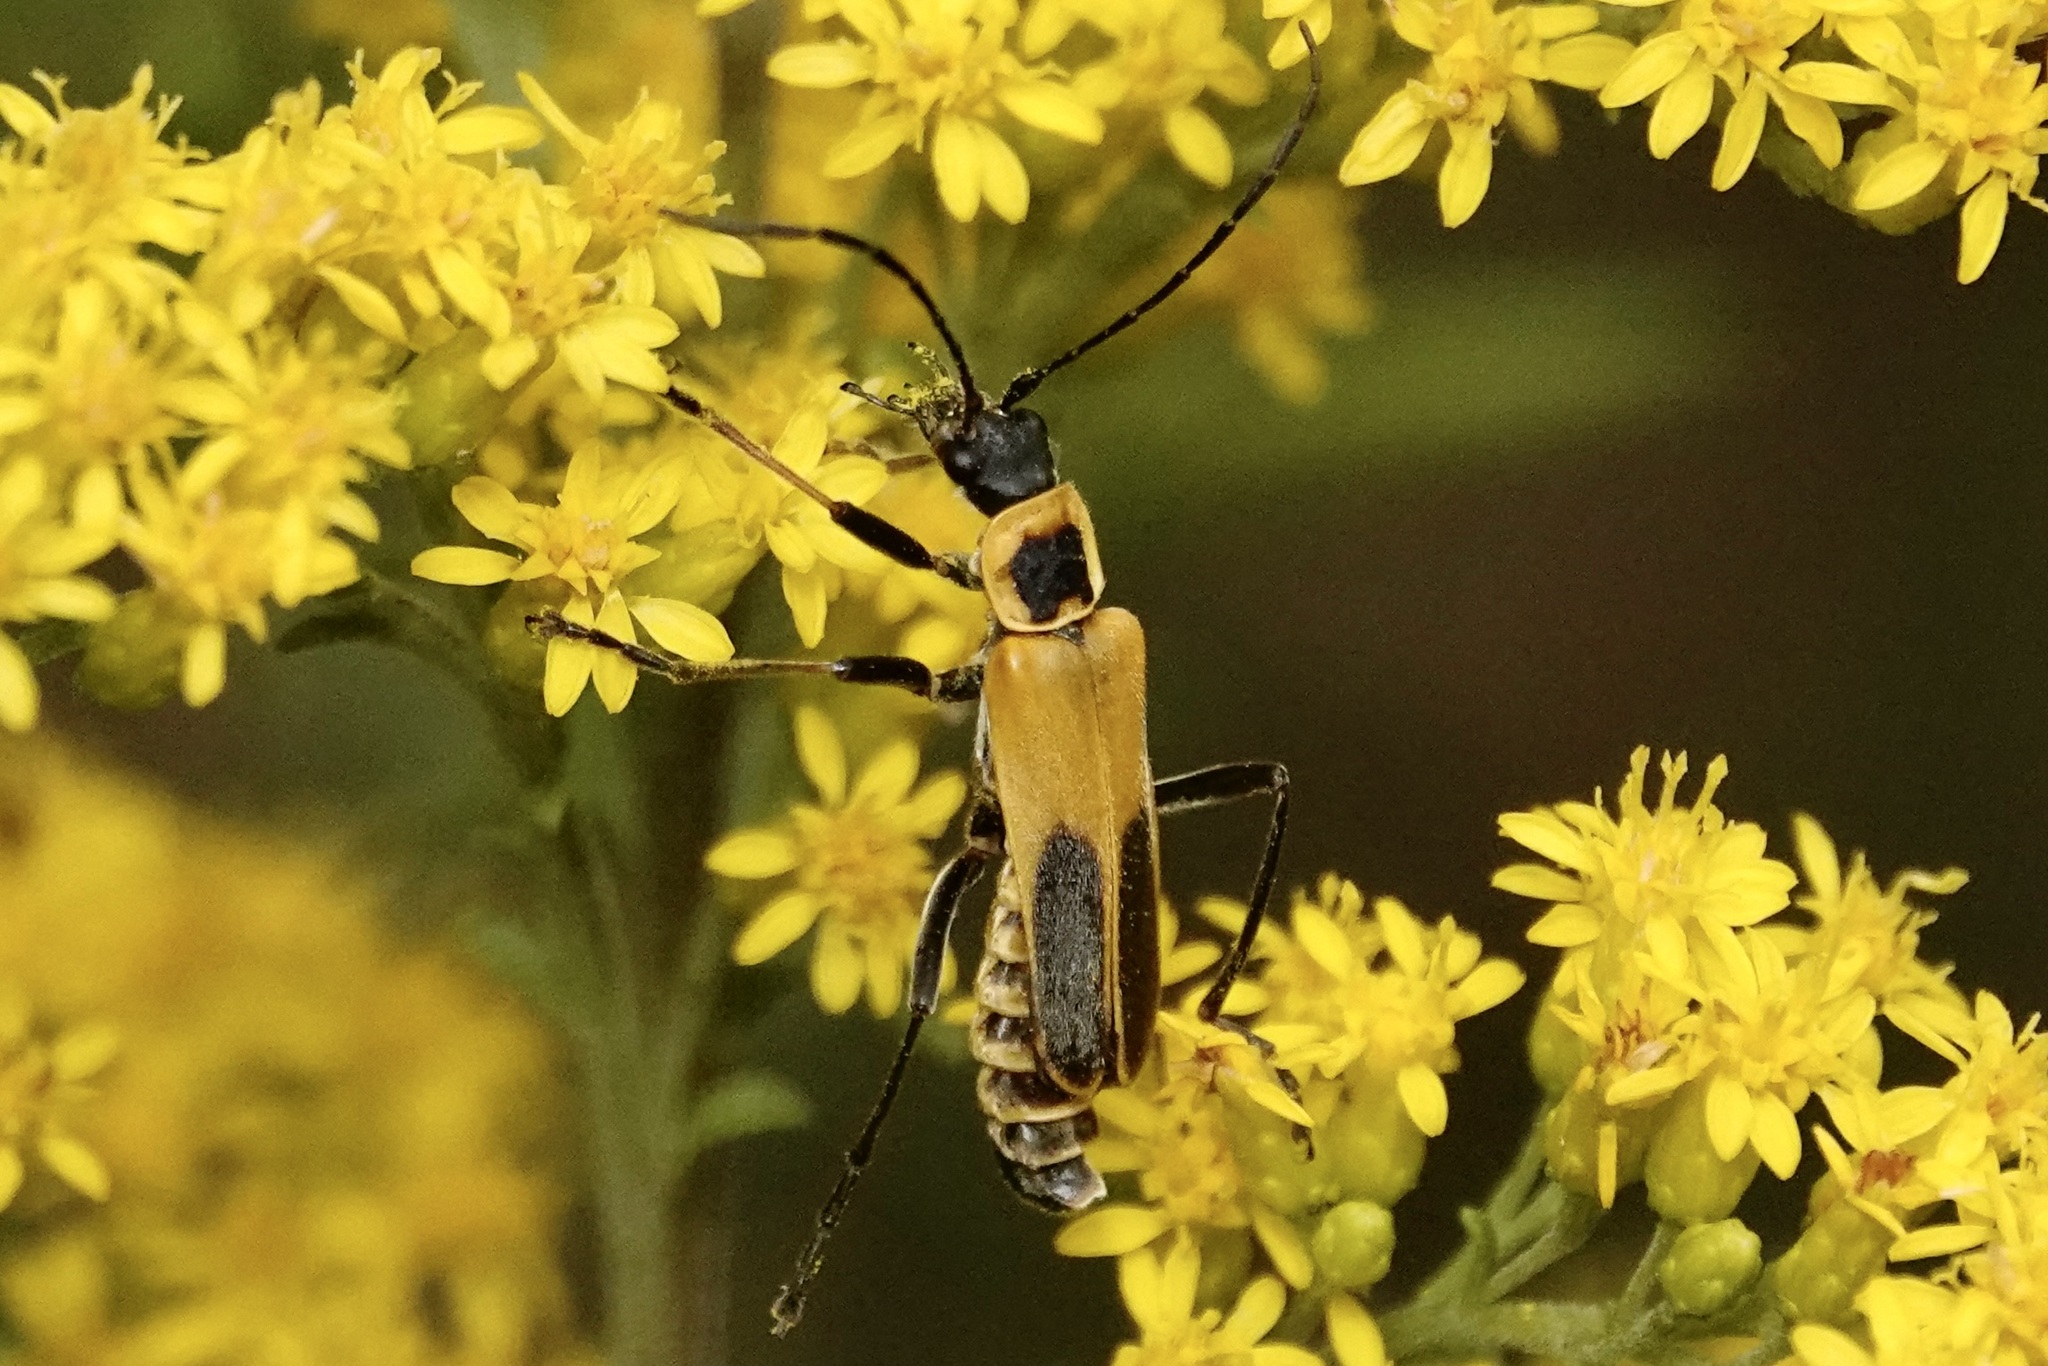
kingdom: Animalia
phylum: Arthropoda
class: Insecta
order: Coleoptera
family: Cantharidae
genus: Chauliognathus
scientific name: Chauliognathus pensylvanicus
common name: Goldenrod soldier beetle
